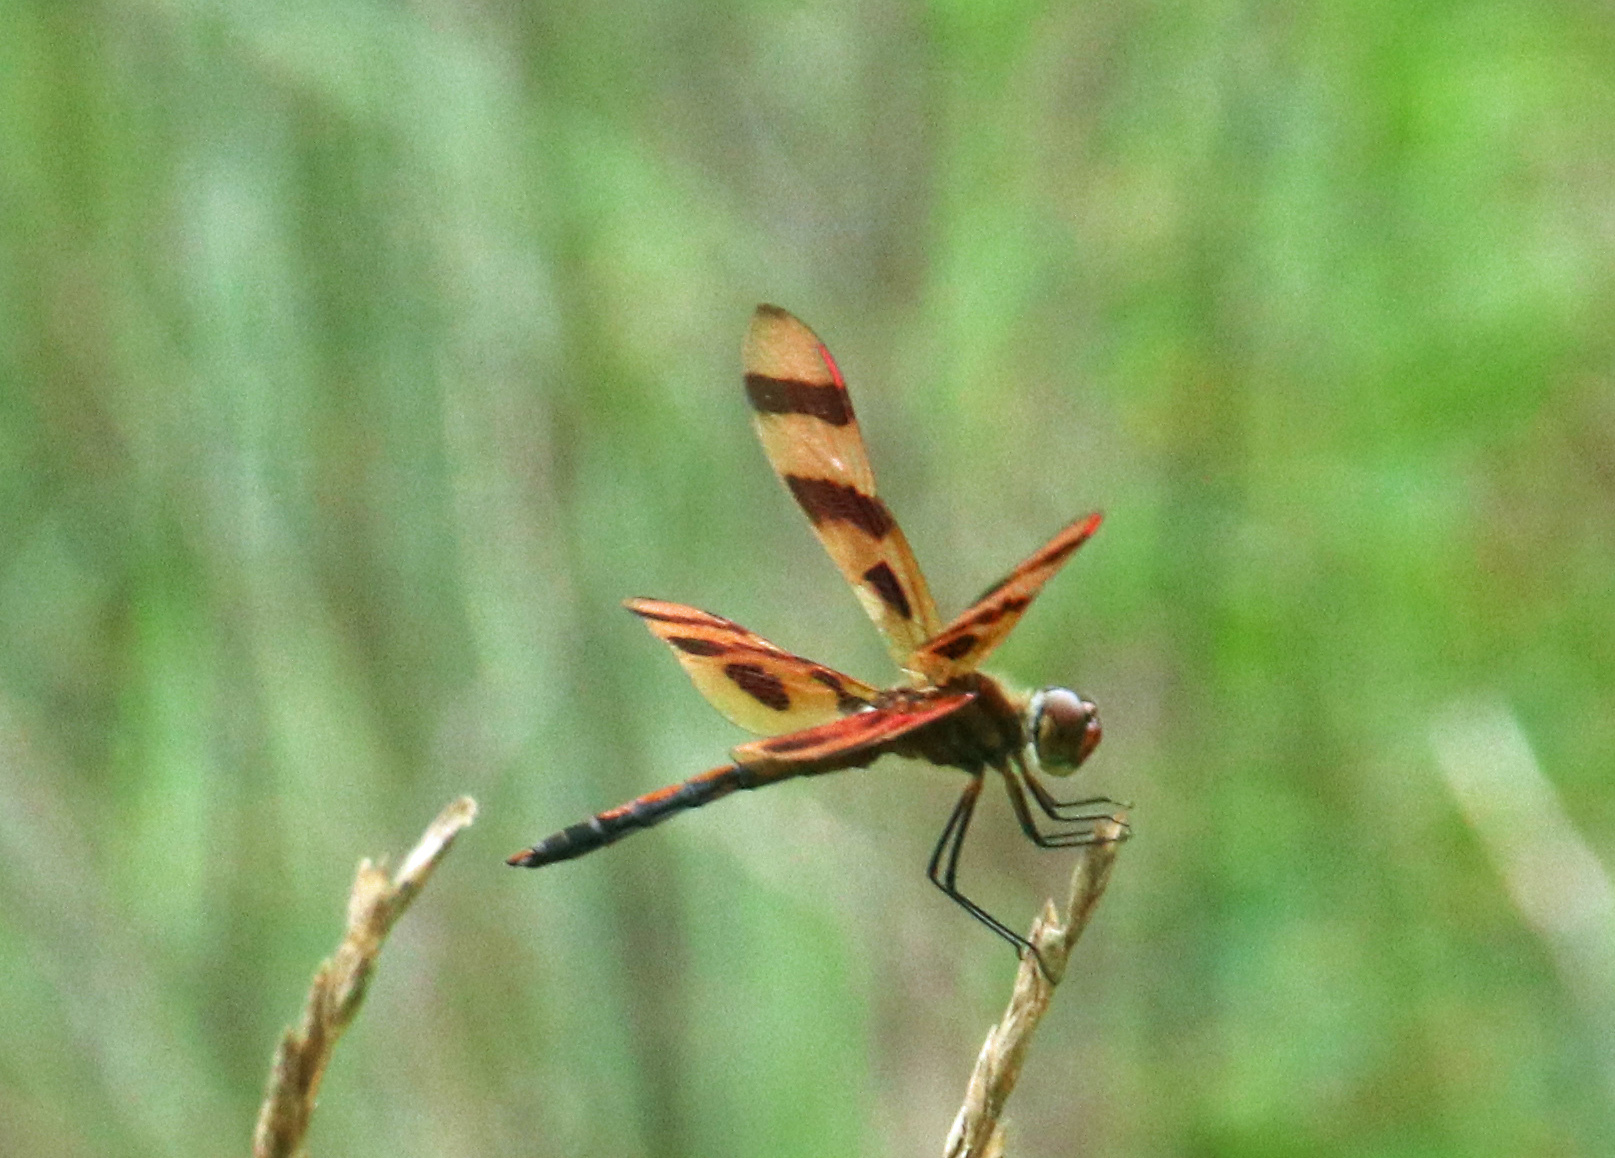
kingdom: Animalia
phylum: Arthropoda
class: Insecta
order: Odonata
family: Libellulidae
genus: Celithemis
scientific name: Celithemis eponina
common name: Halloween pennant
